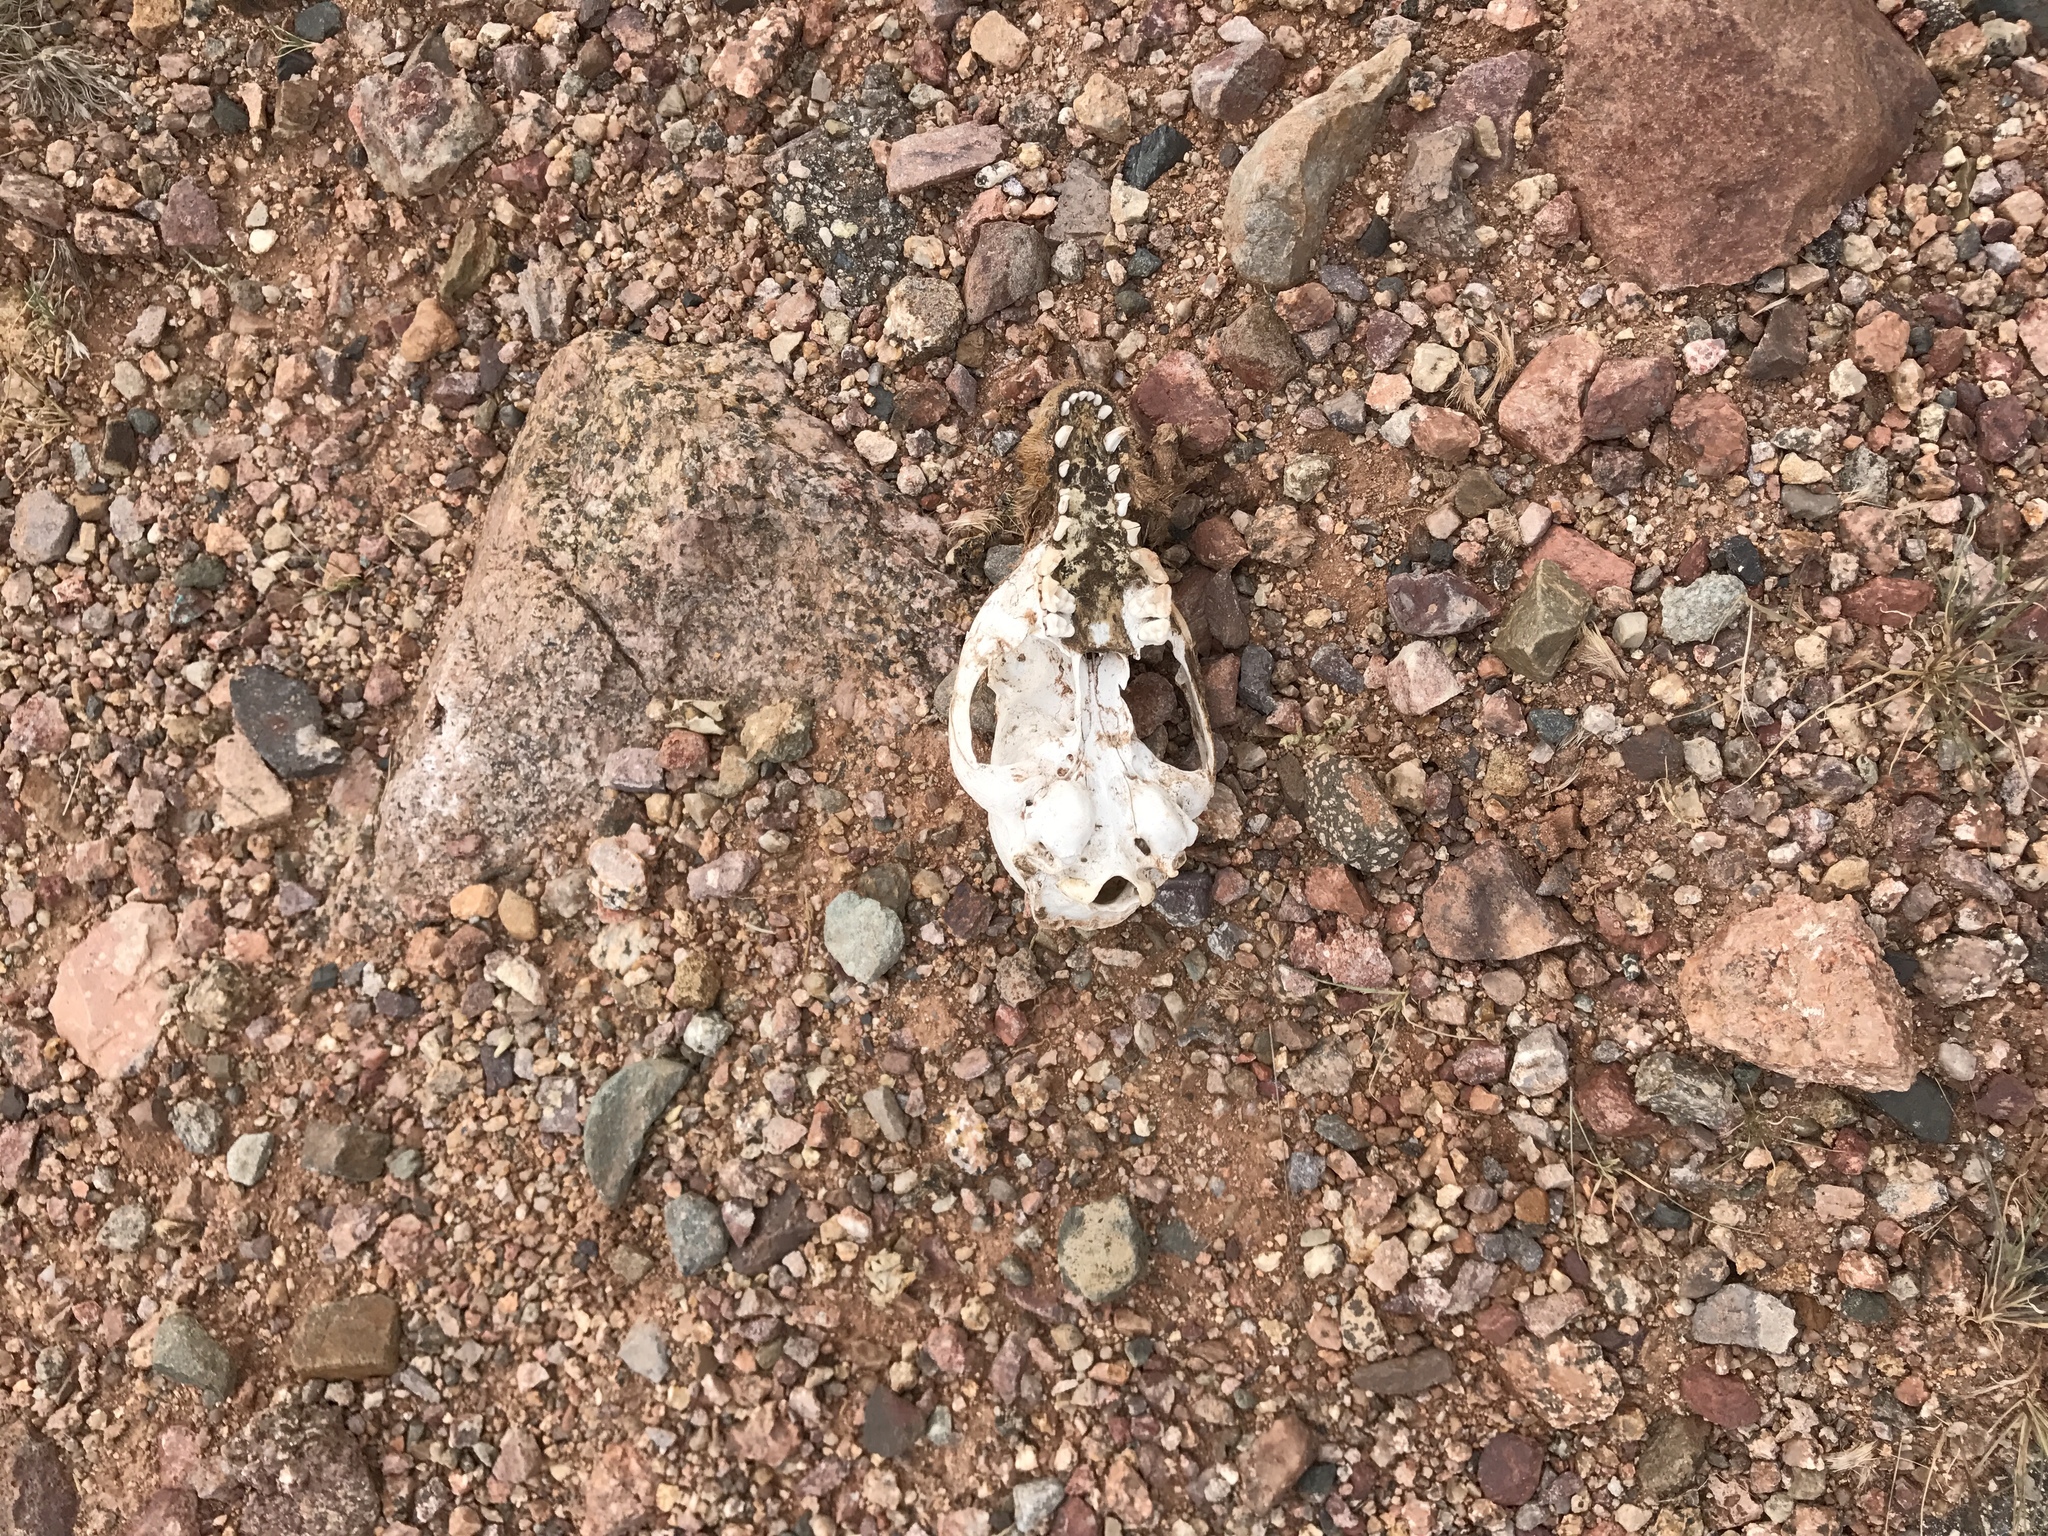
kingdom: Animalia
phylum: Chordata
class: Mammalia
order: Carnivora
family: Procyonidae
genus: Nasua
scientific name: Nasua narica
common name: White-nosed coati
